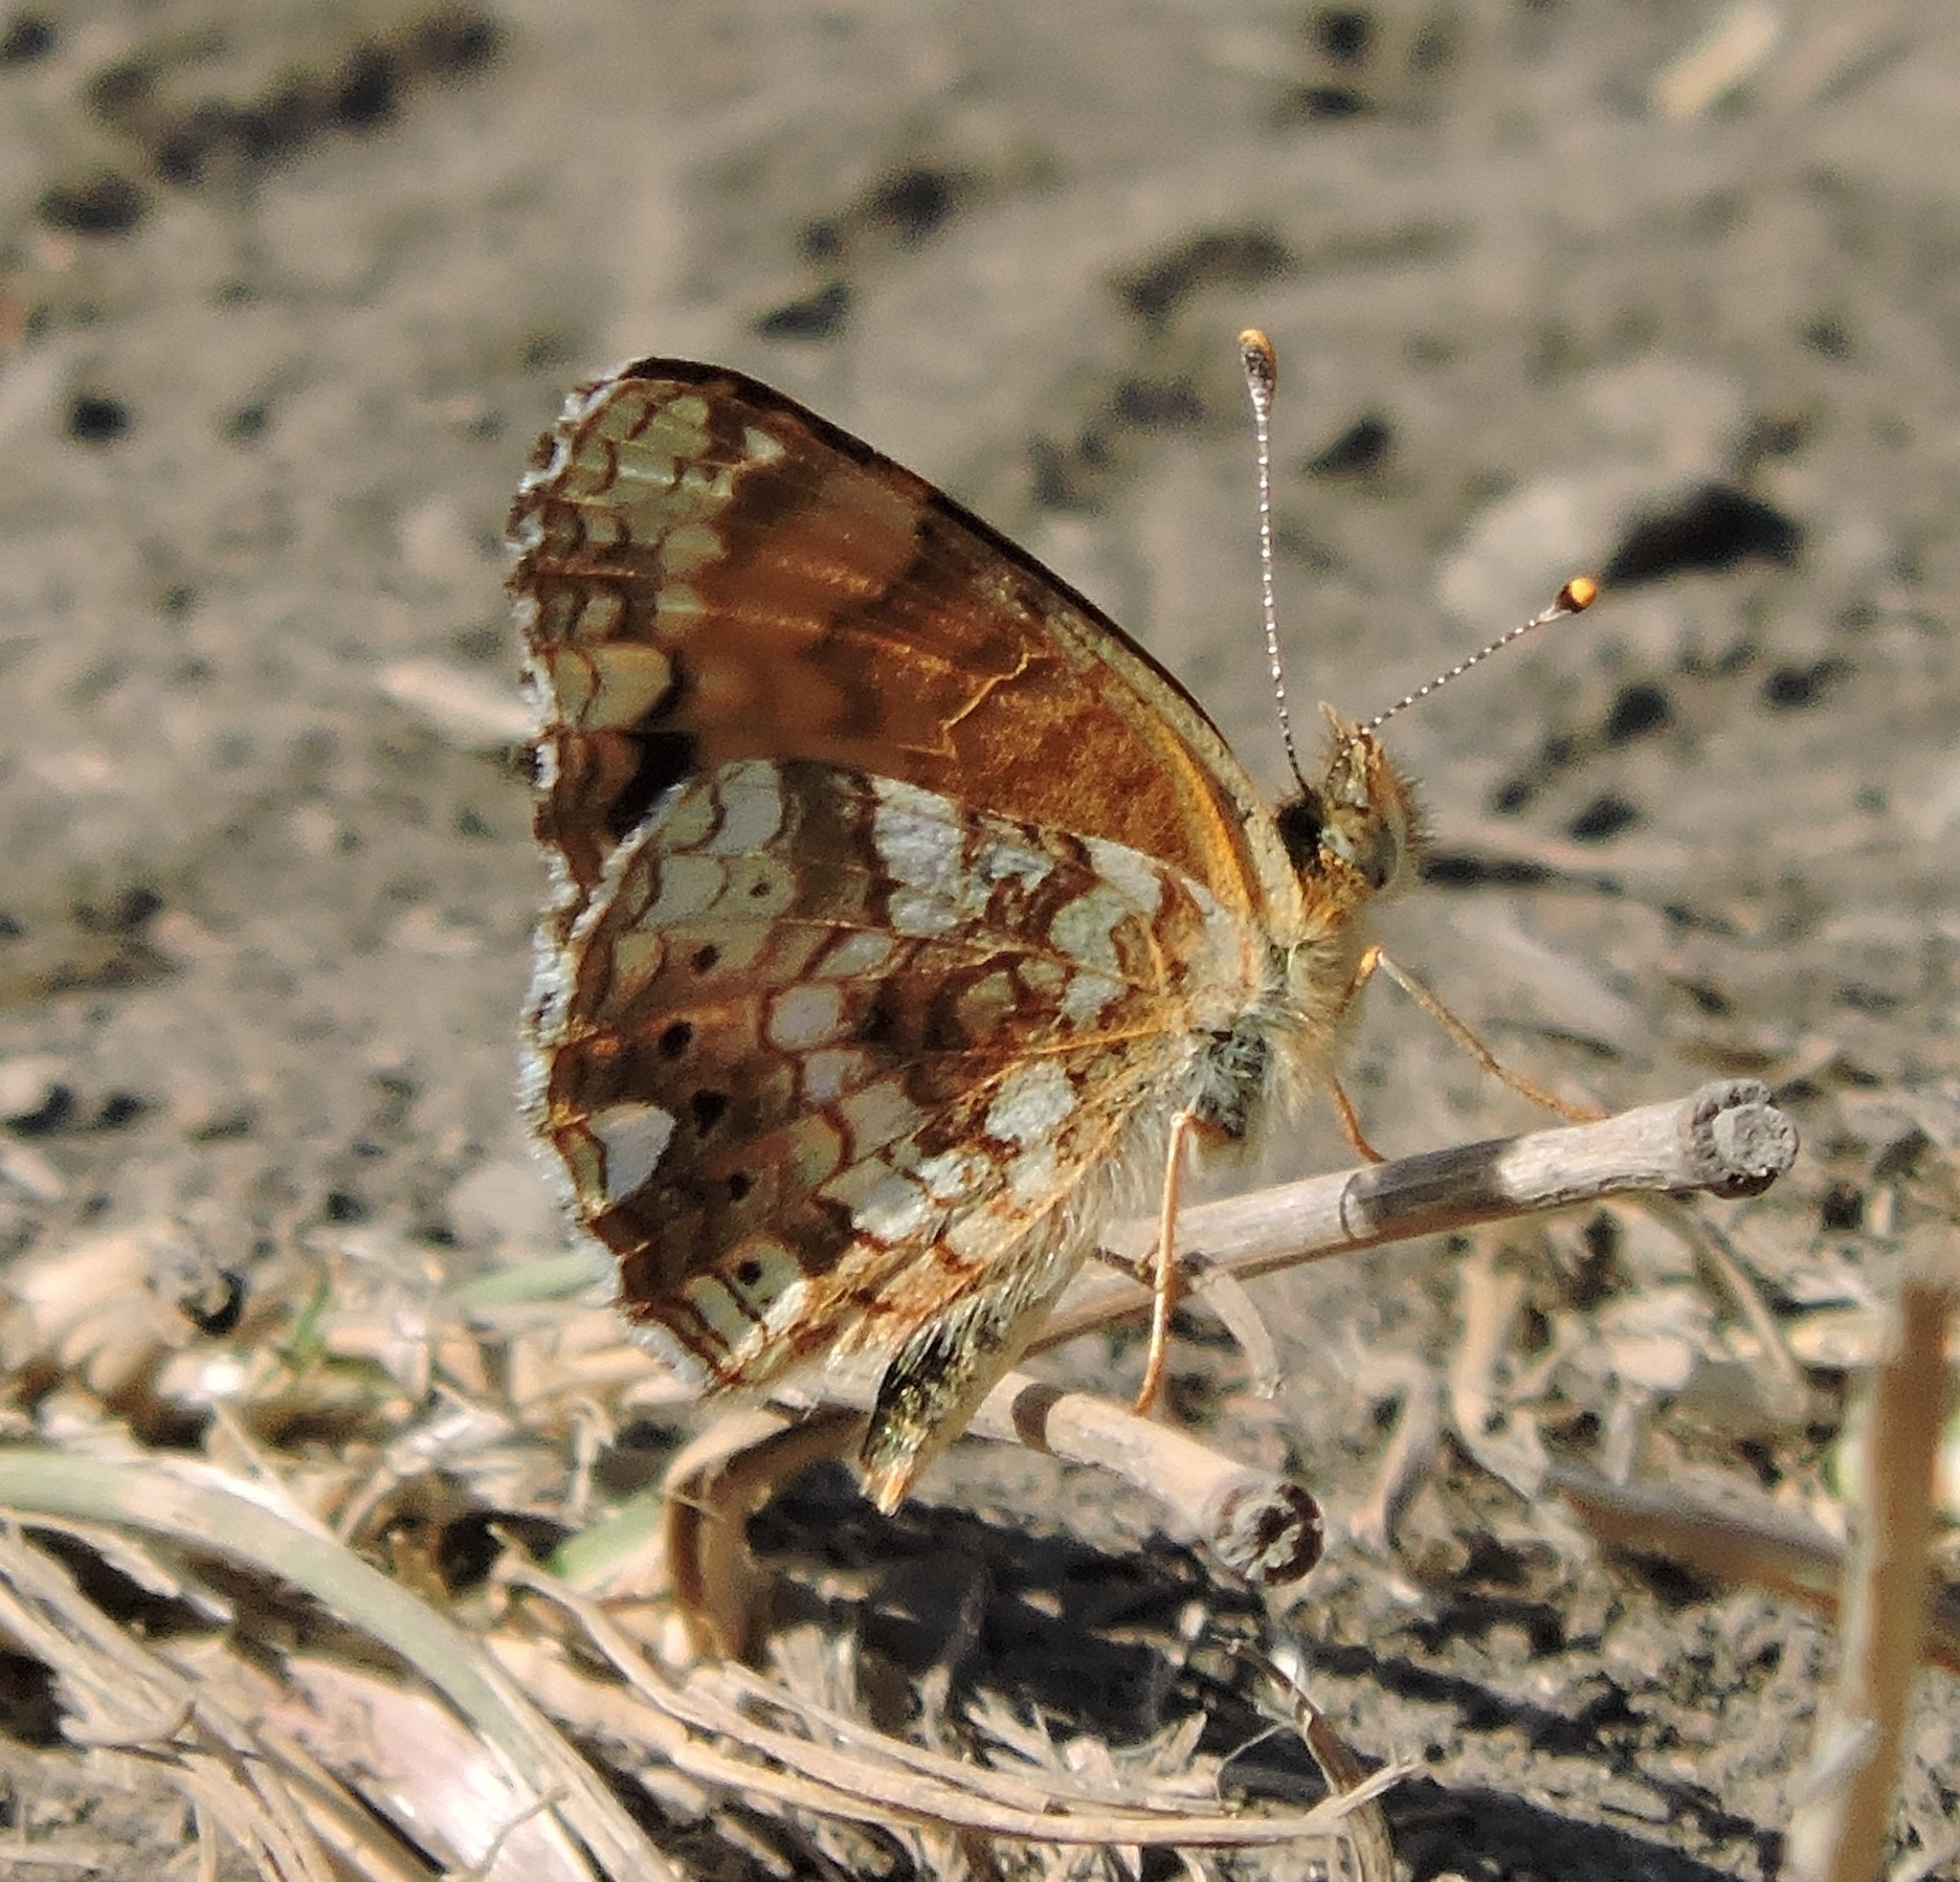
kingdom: Animalia
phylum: Arthropoda
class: Insecta
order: Lepidoptera
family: Nymphalidae
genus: Eresia
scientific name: Eresia aveyrona
